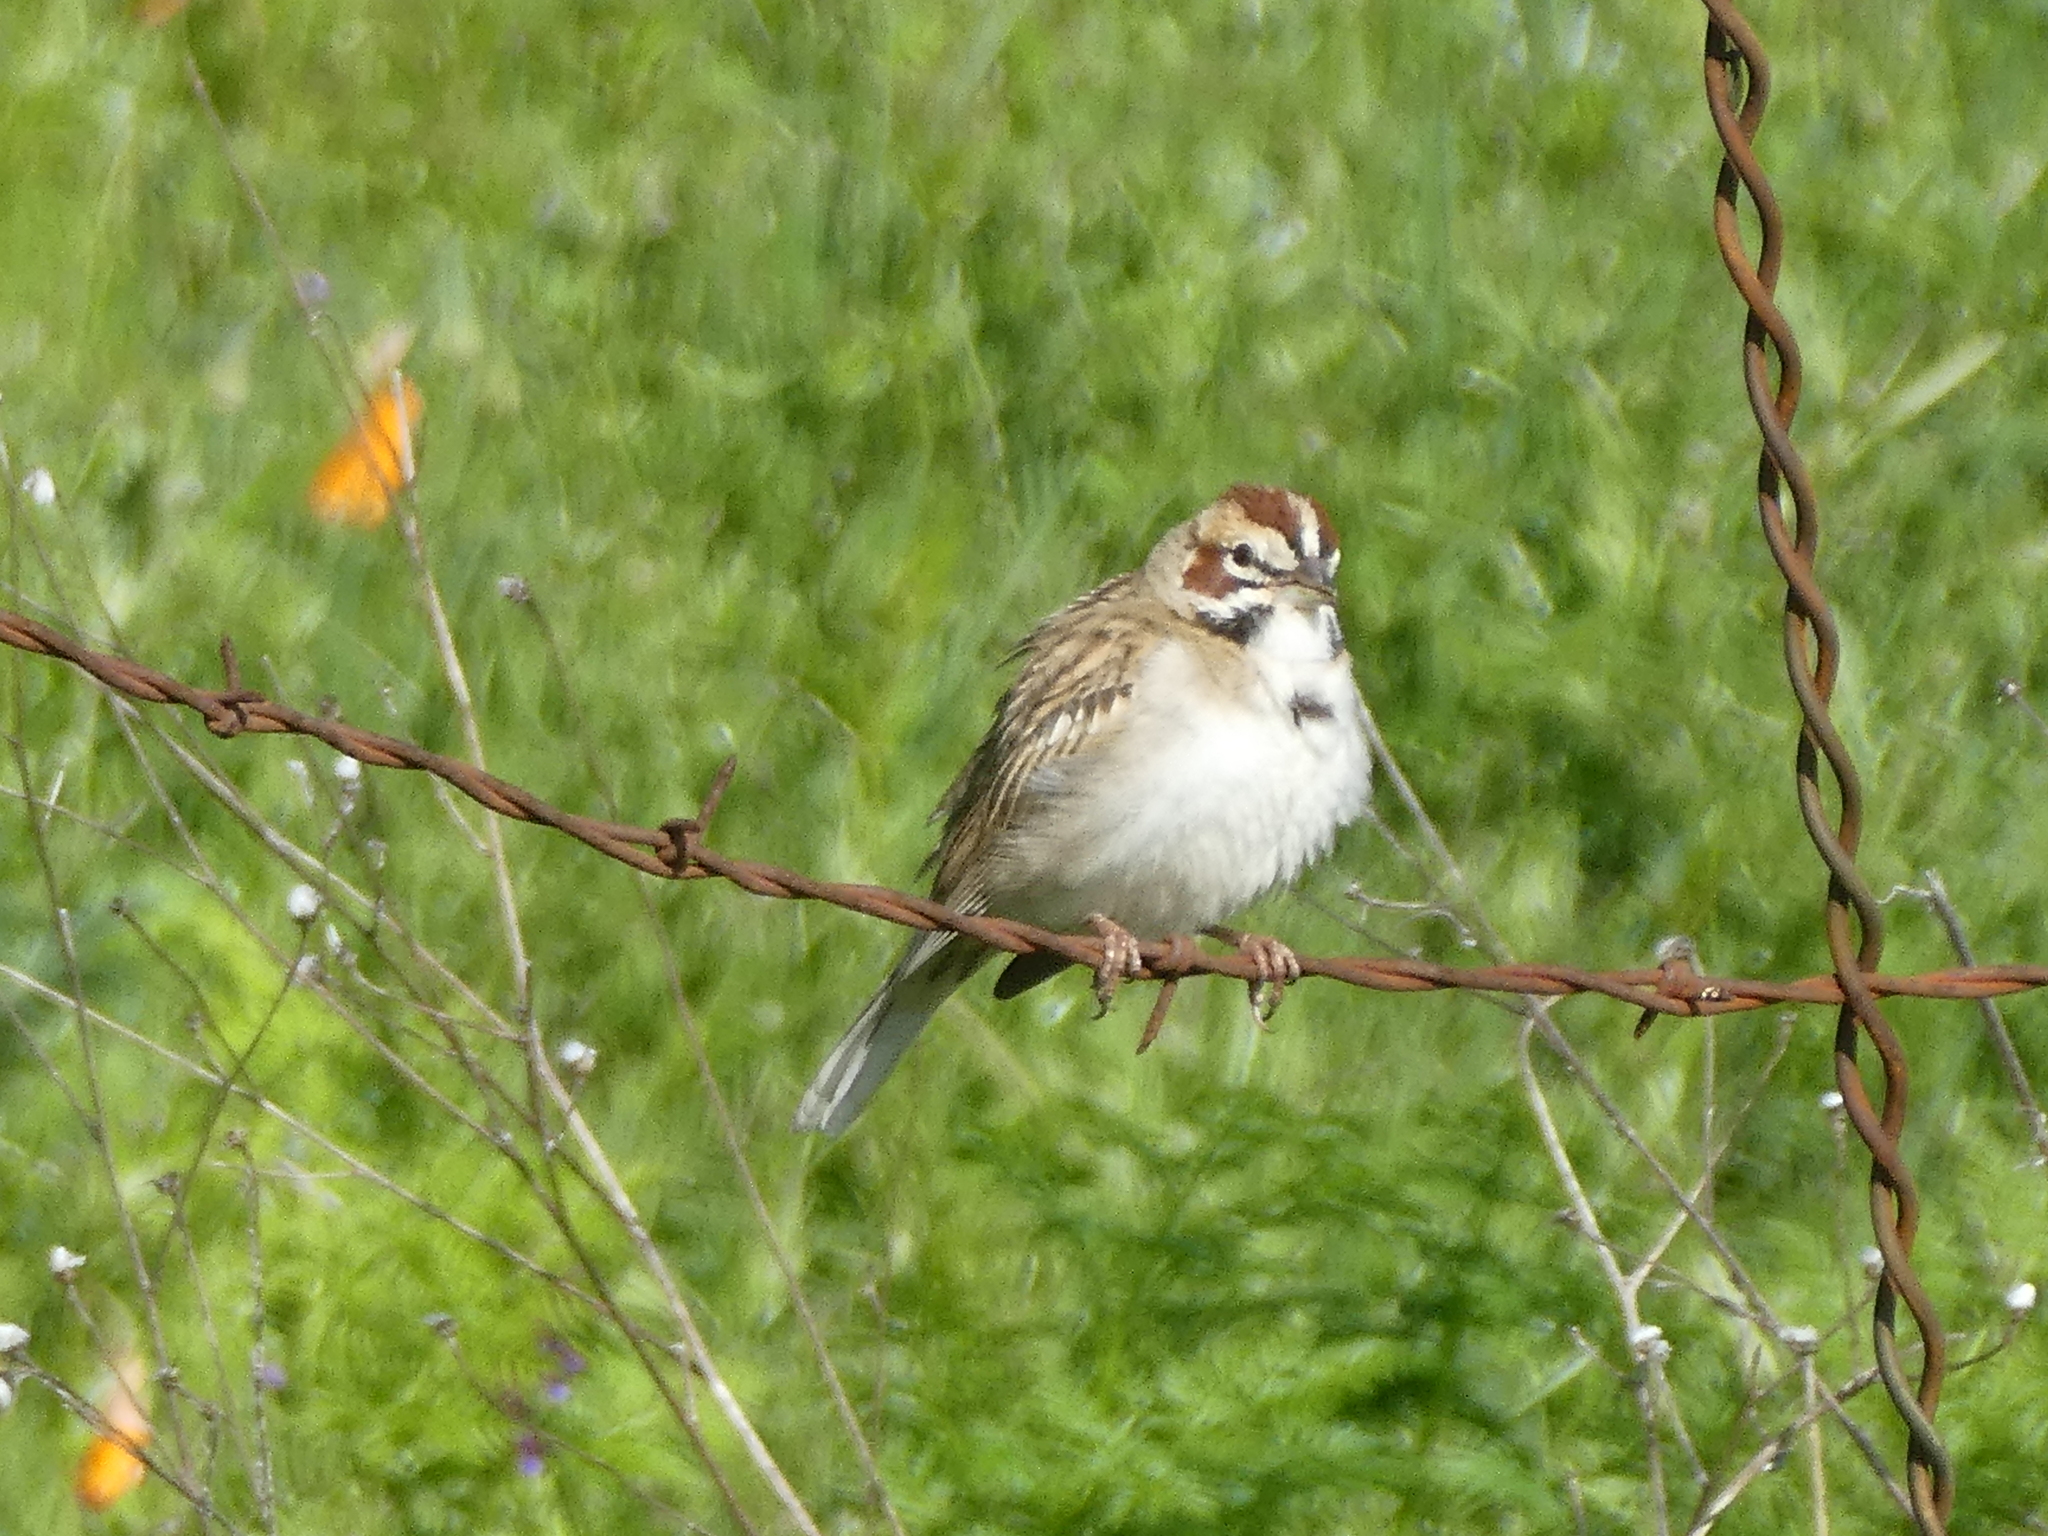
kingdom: Animalia
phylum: Chordata
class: Aves
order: Passeriformes
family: Passerellidae
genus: Chondestes
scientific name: Chondestes grammacus
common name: Lark sparrow
